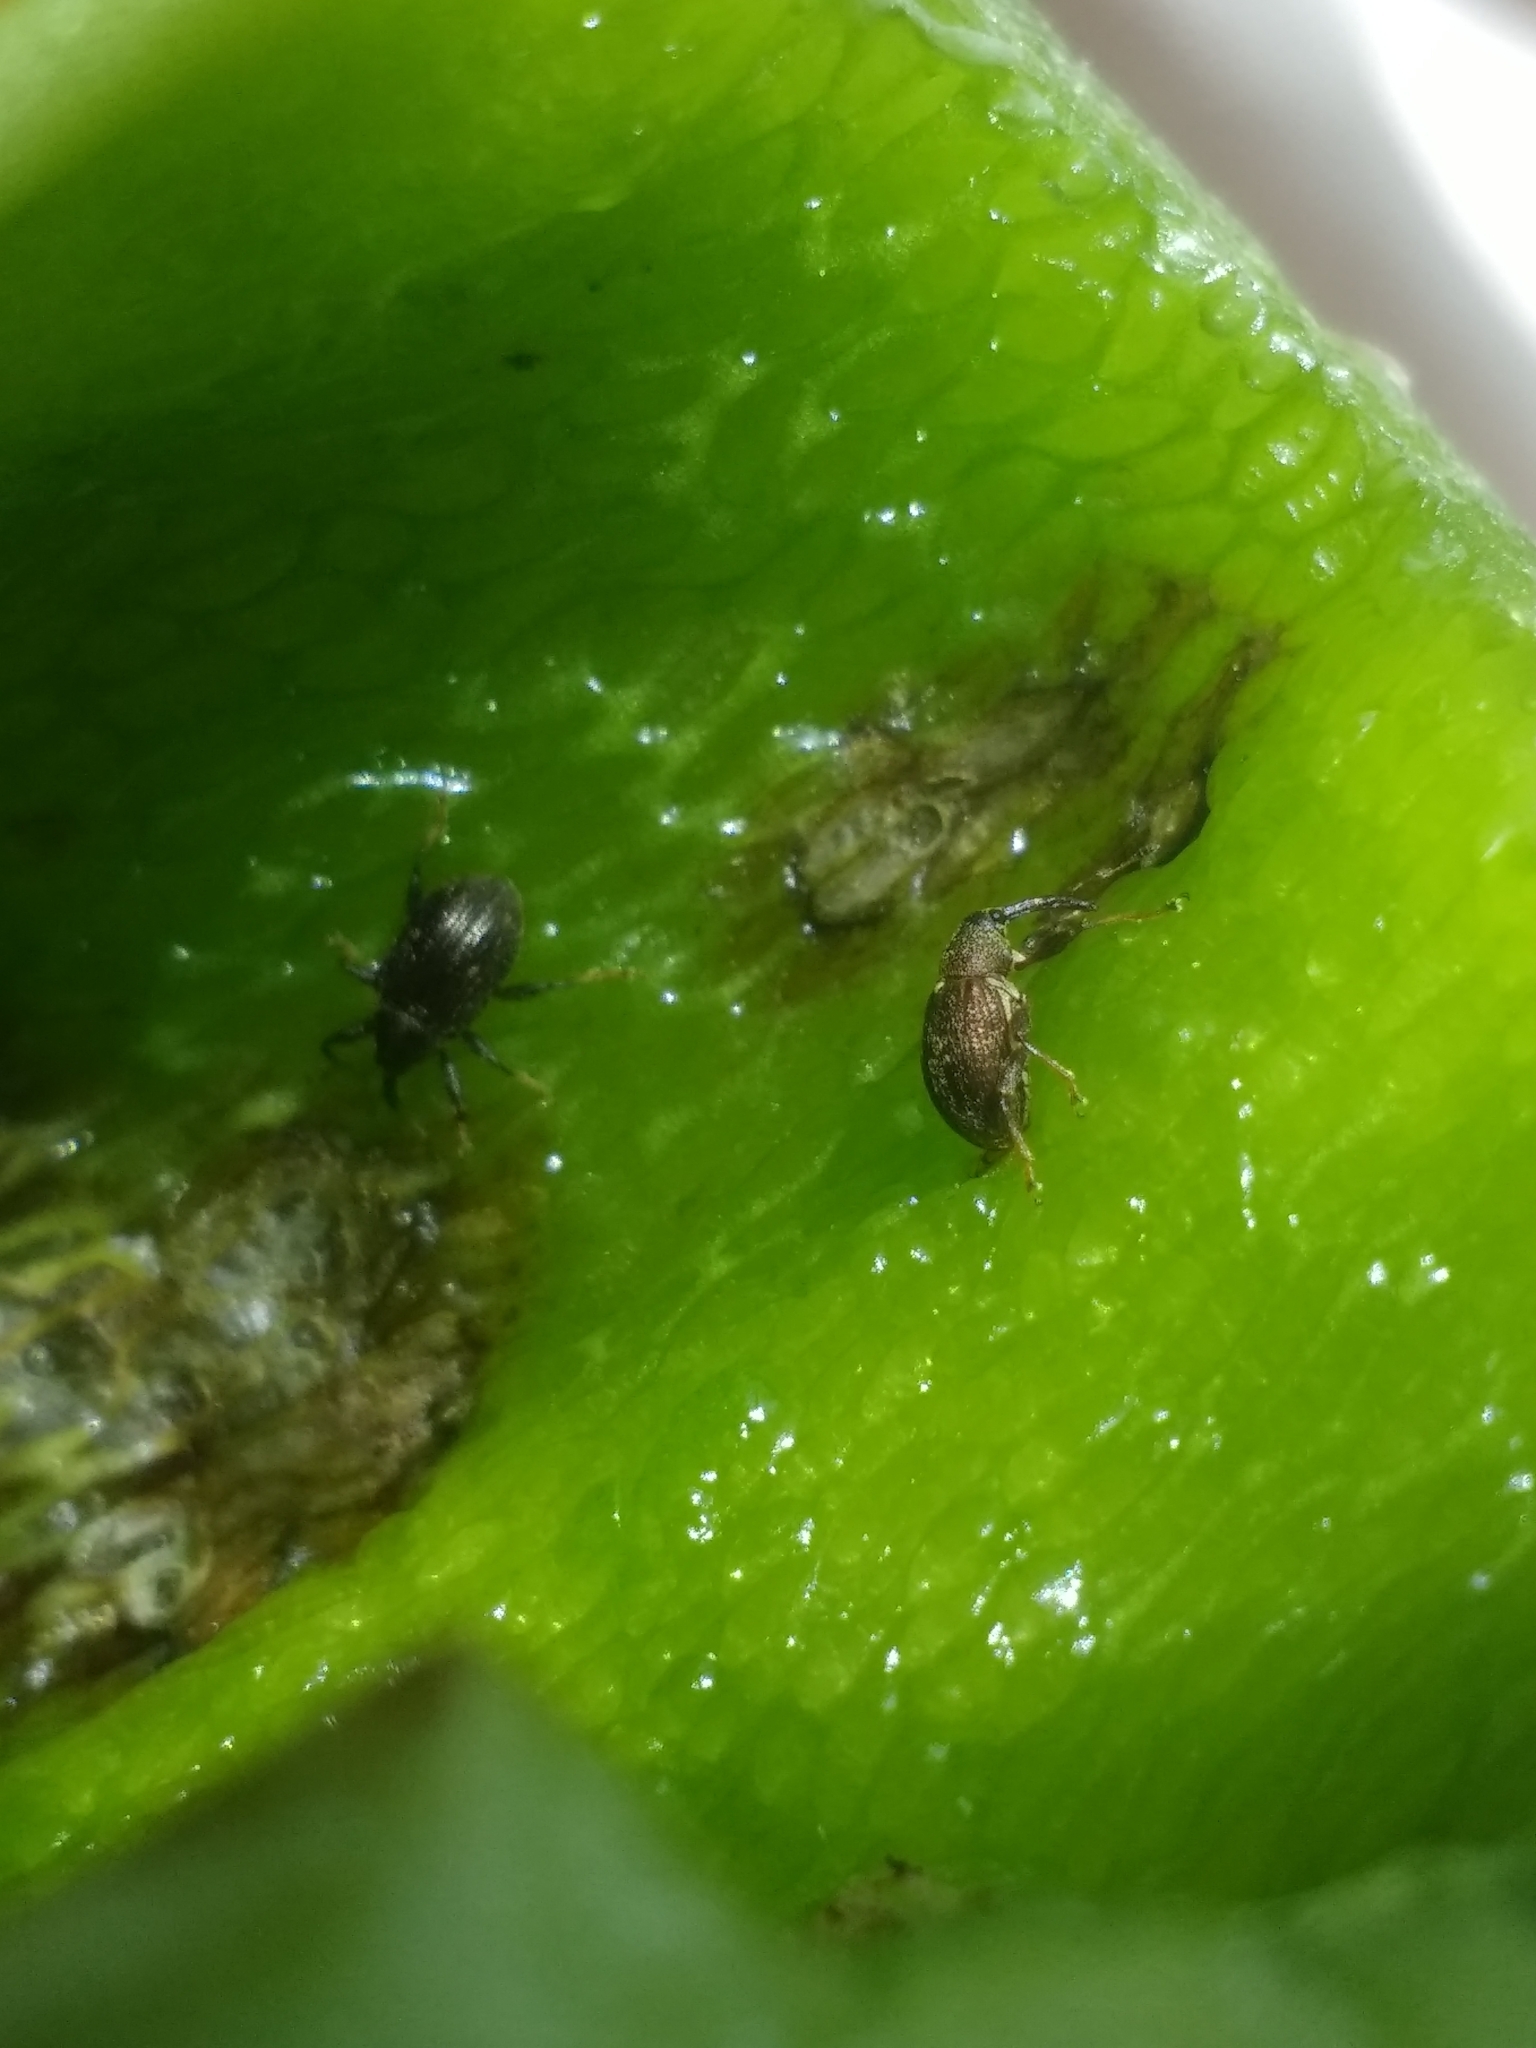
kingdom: Animalia
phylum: Arthropoda
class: Insecta
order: Coleoptera
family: Curculionidae
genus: Anthonomus
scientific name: Anthonomus eugenii
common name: Weevil
